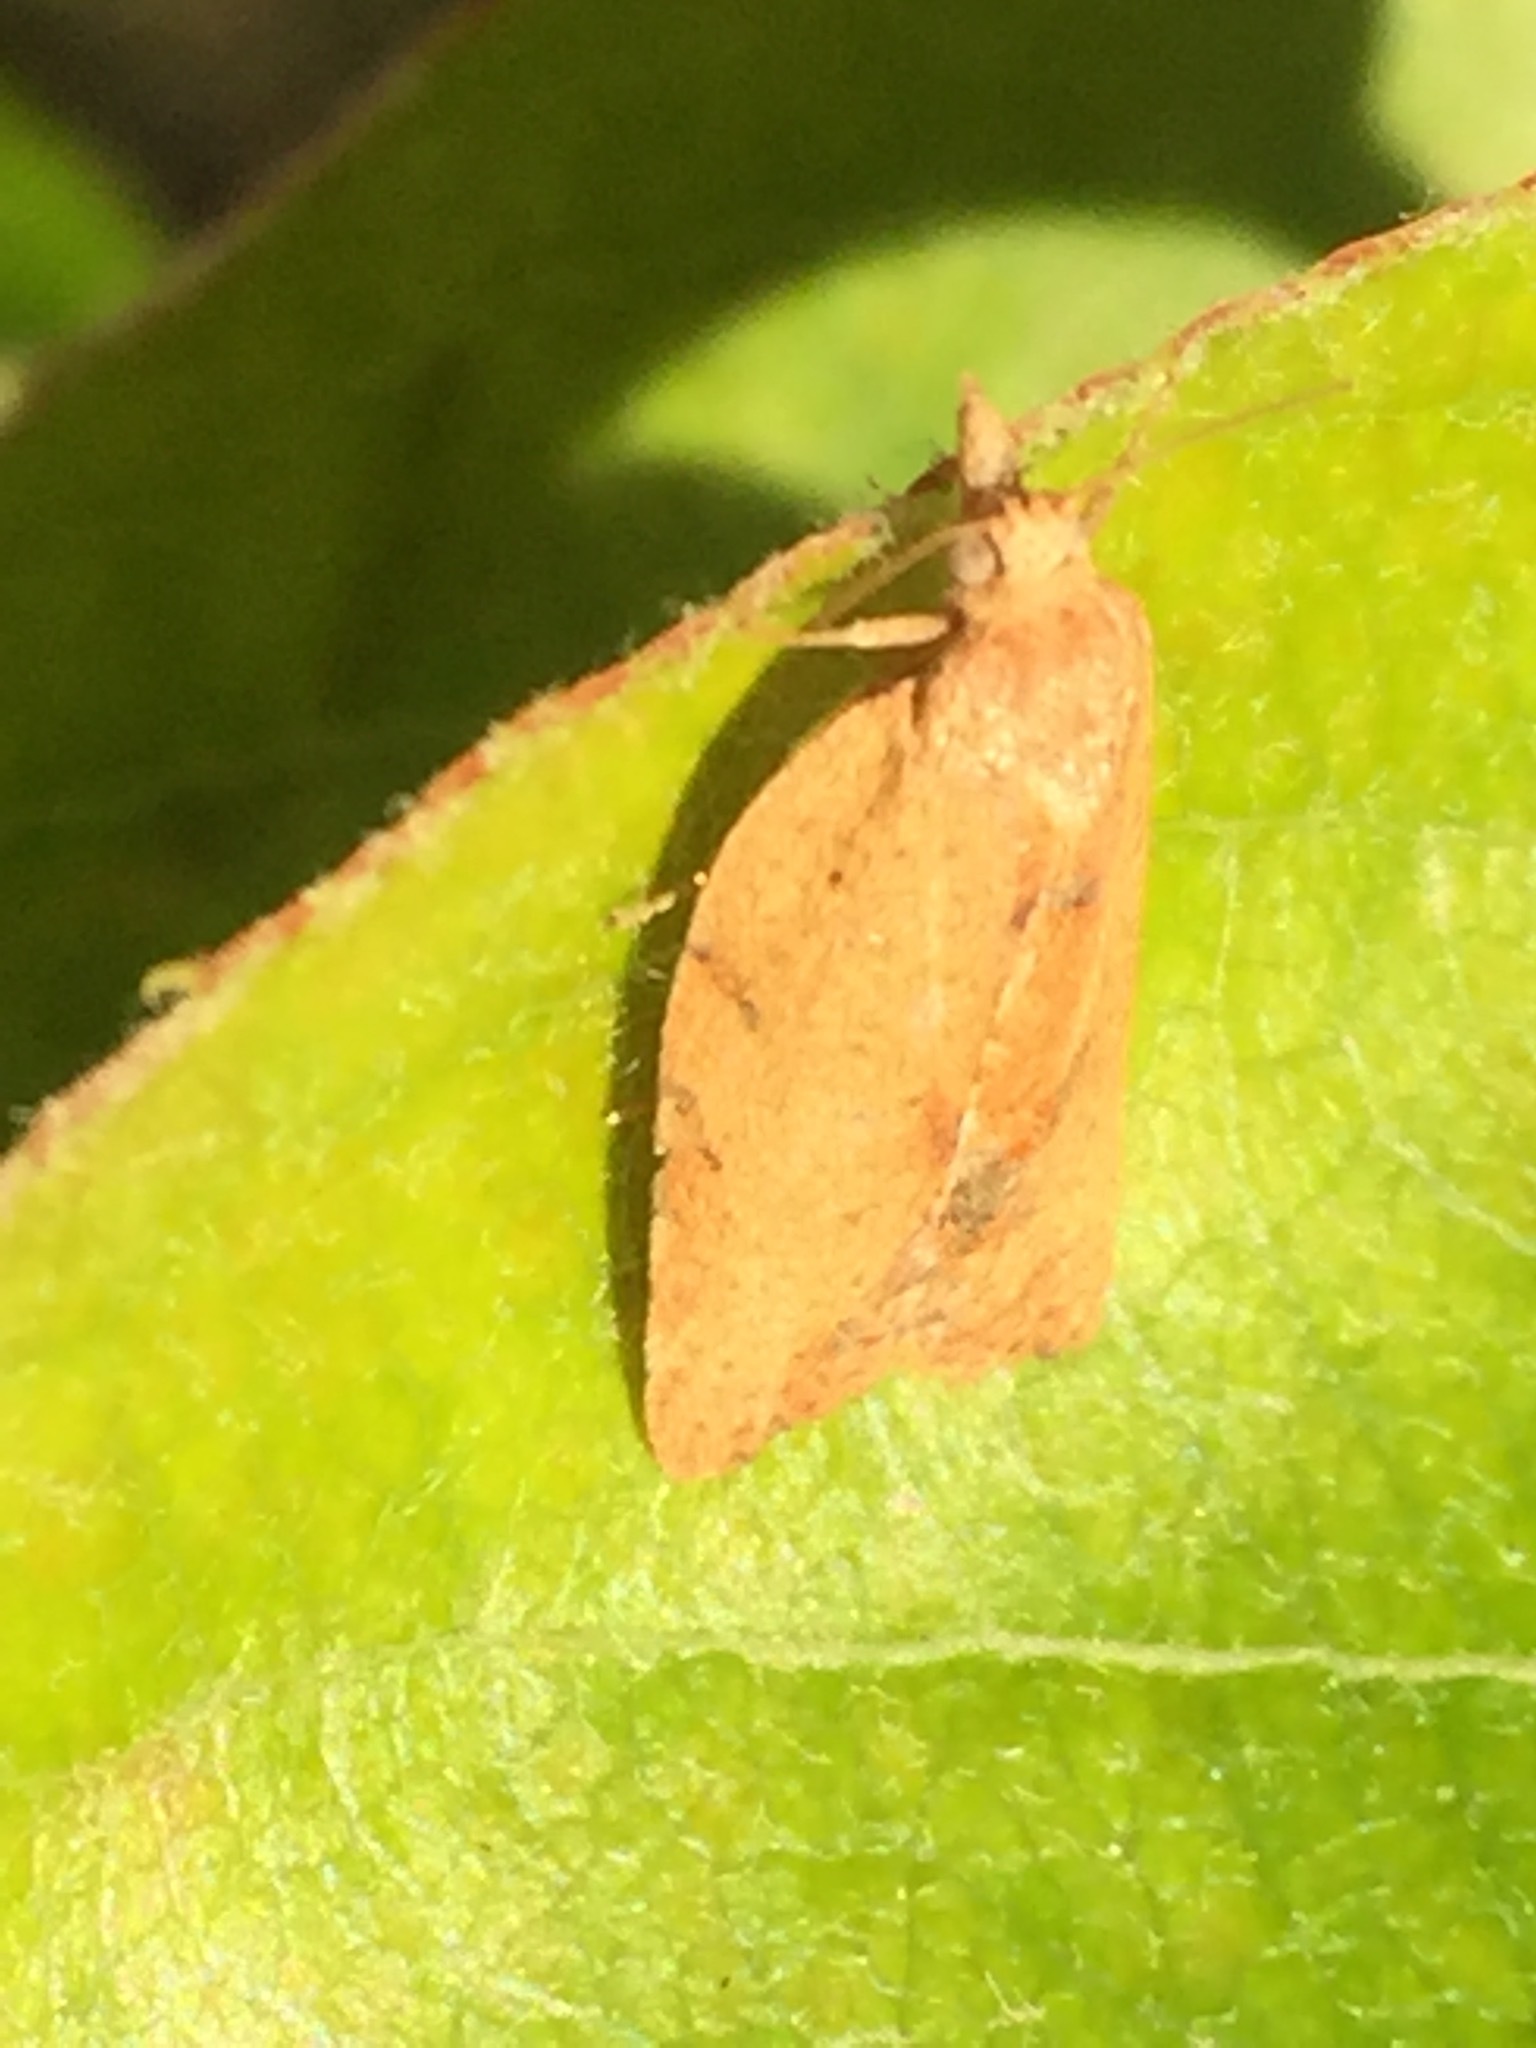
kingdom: Animalia
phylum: Arthropoda
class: Insecta
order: Lepidoptera
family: Tortricidae
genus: Epiphyas
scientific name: Epiphyas postvittana
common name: Light brown apple moth
